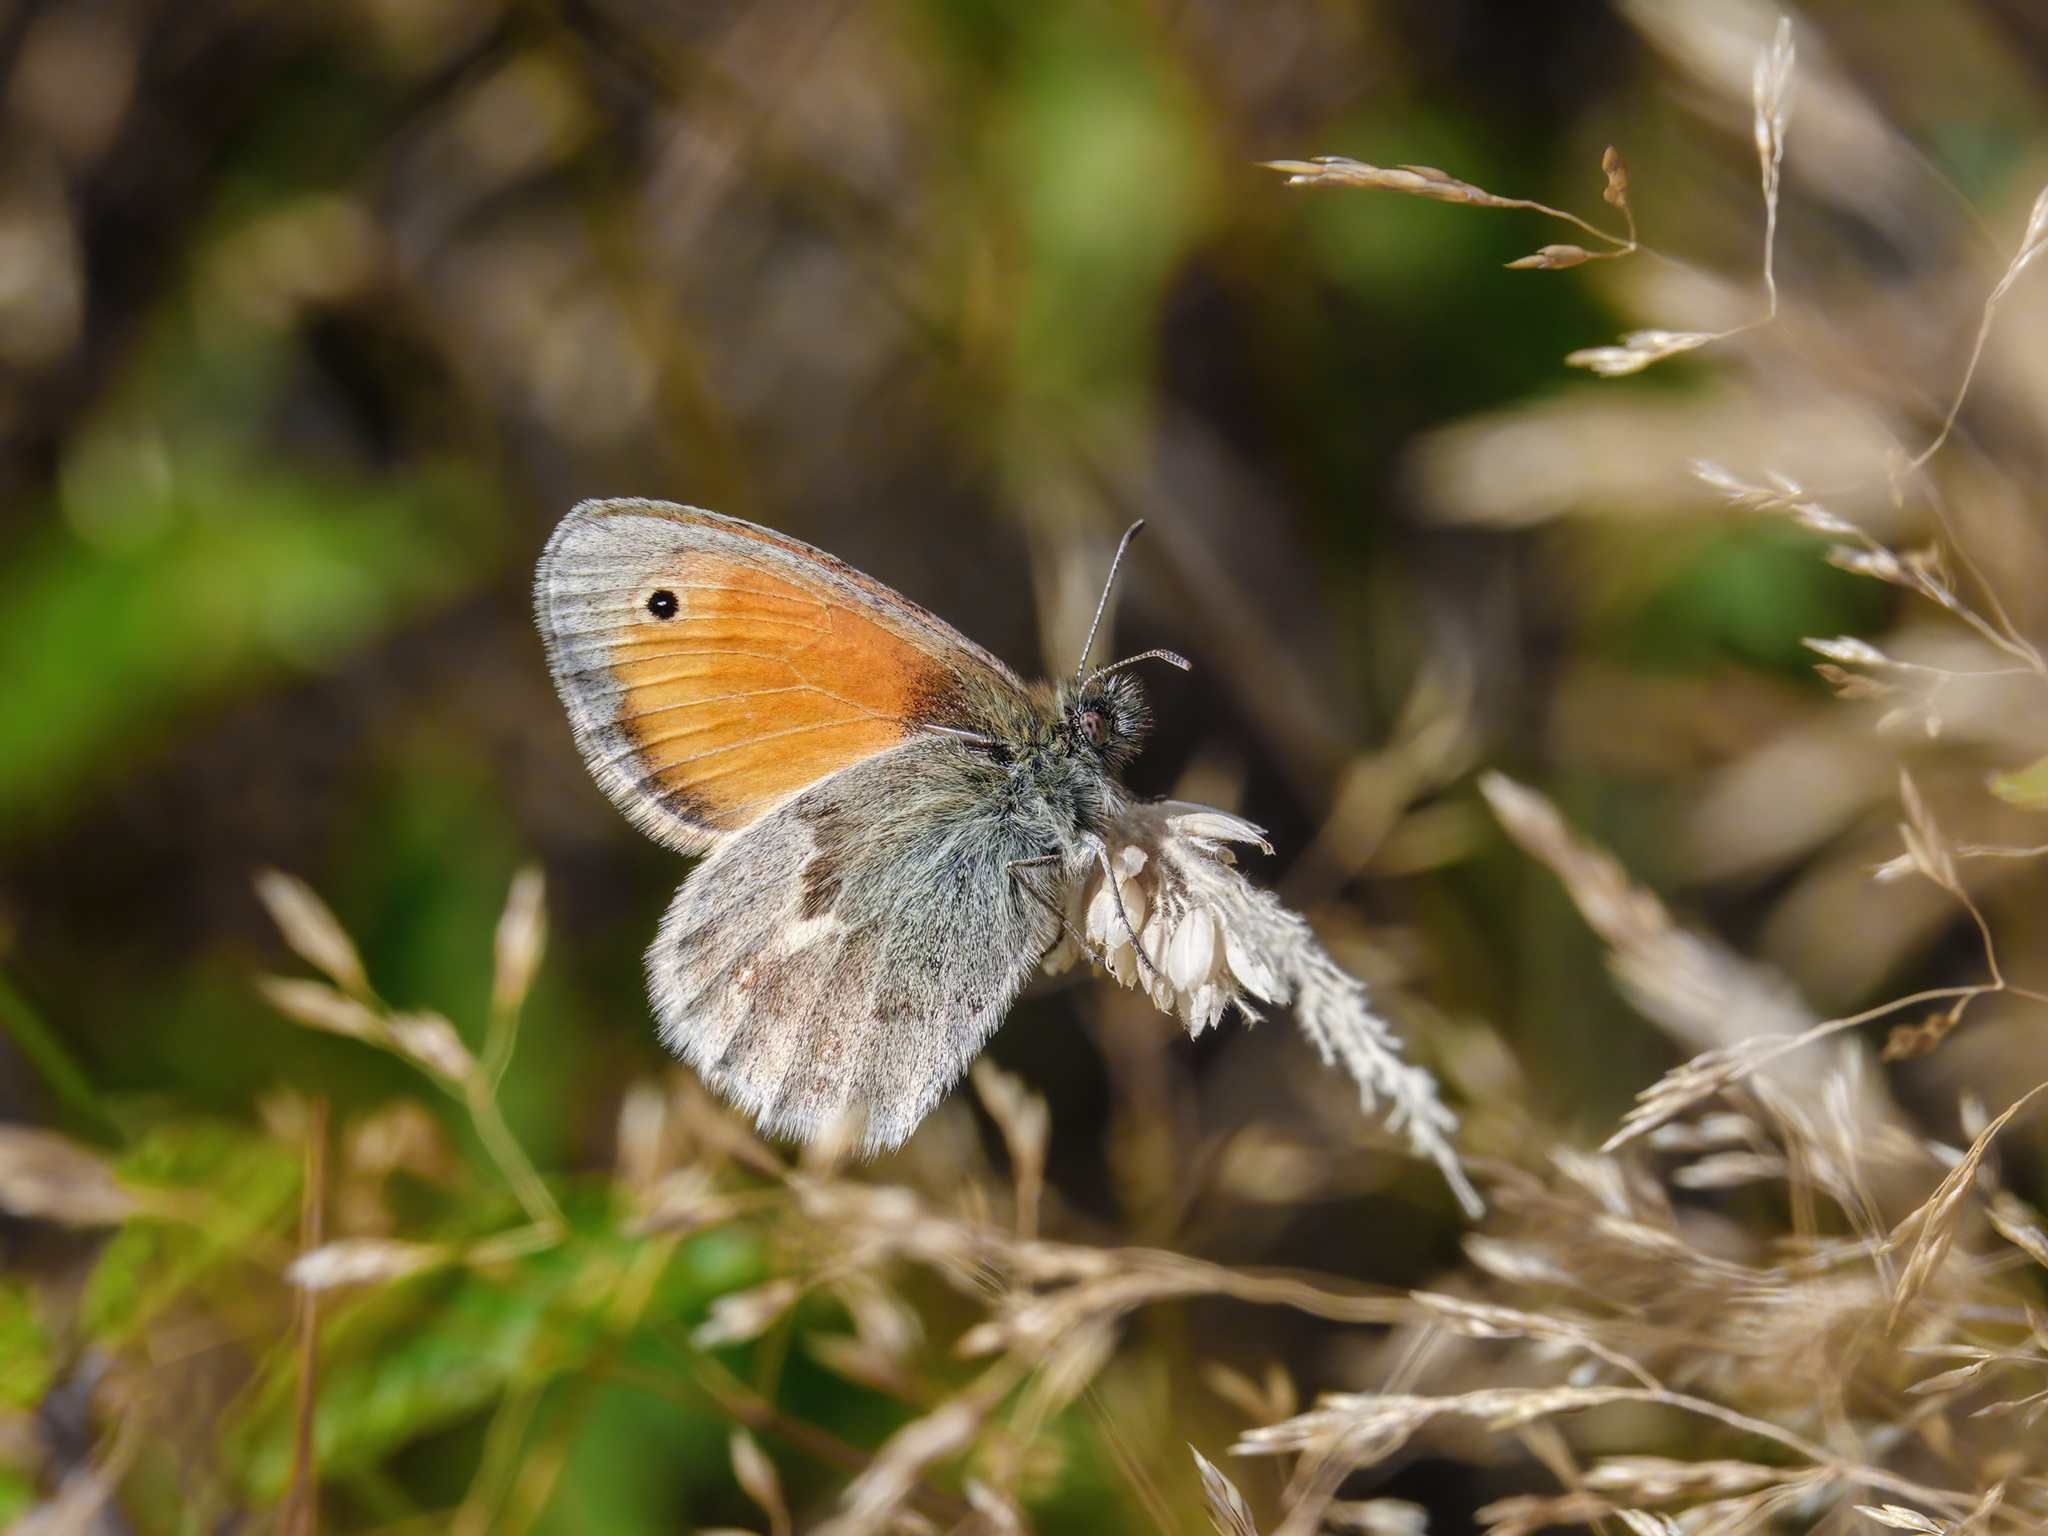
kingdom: Animalia
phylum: Arthropoda
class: Insecta
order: Lepidoptera
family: Nymphalidae
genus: Coenonympha
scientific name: Coenonympha pamphilus
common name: Small heath
